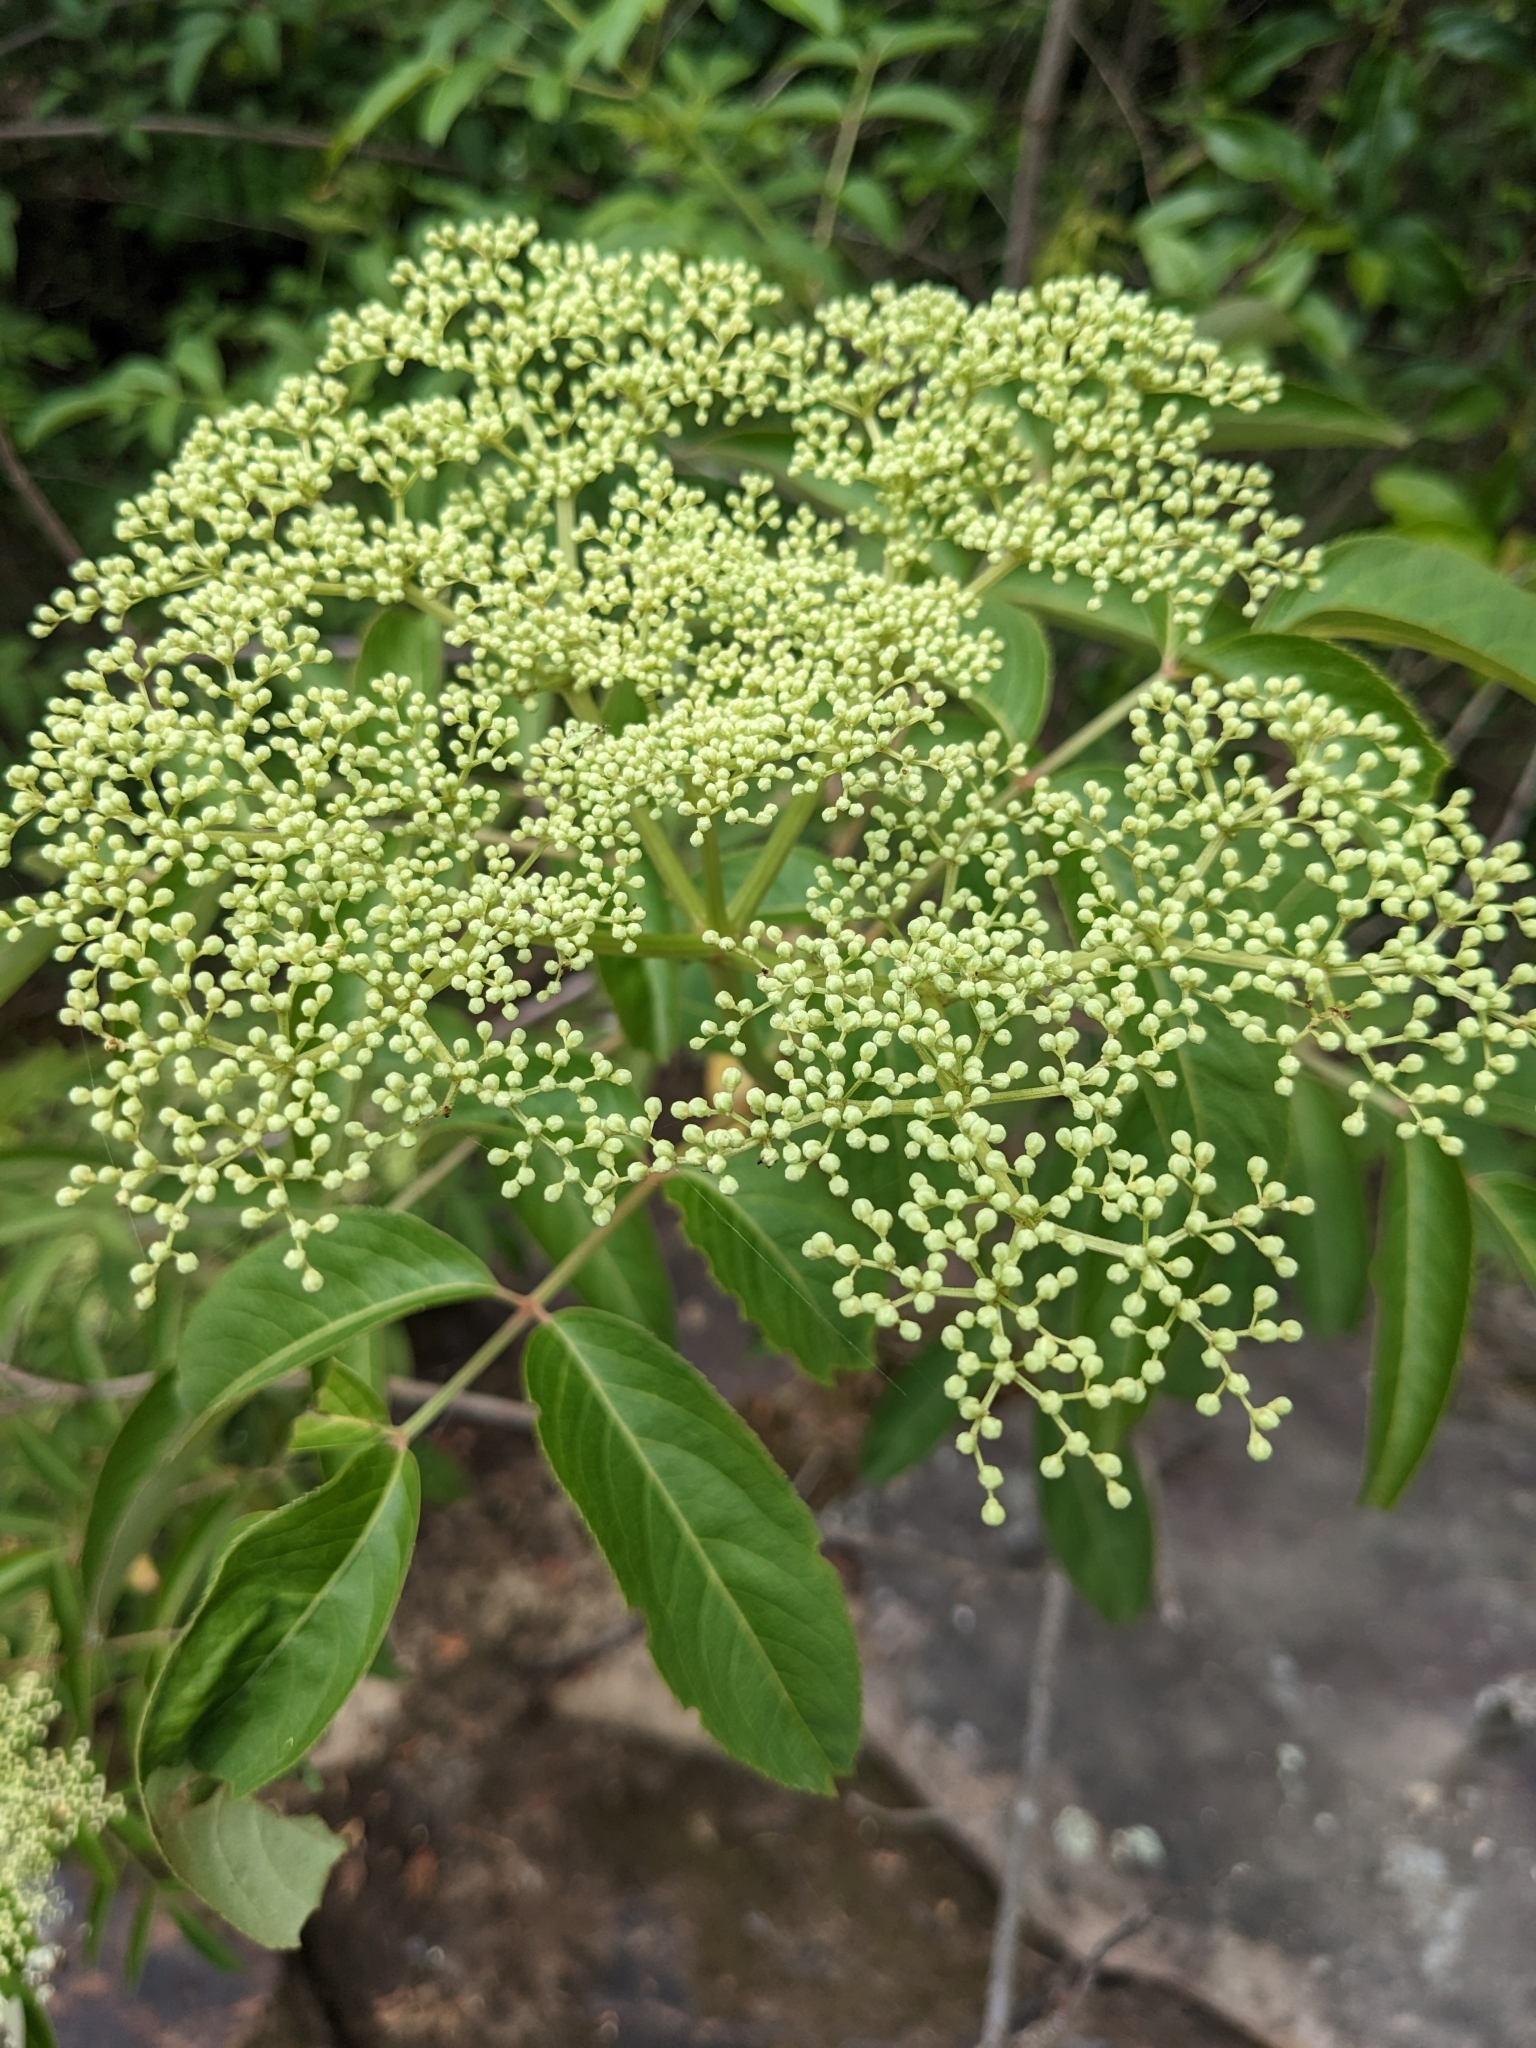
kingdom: Plantae
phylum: Tracheophyta
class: Magnoliopsida
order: Dipsacales
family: Viburnaceae
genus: Sambucus
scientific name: Sambucus canadensis
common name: American elder
